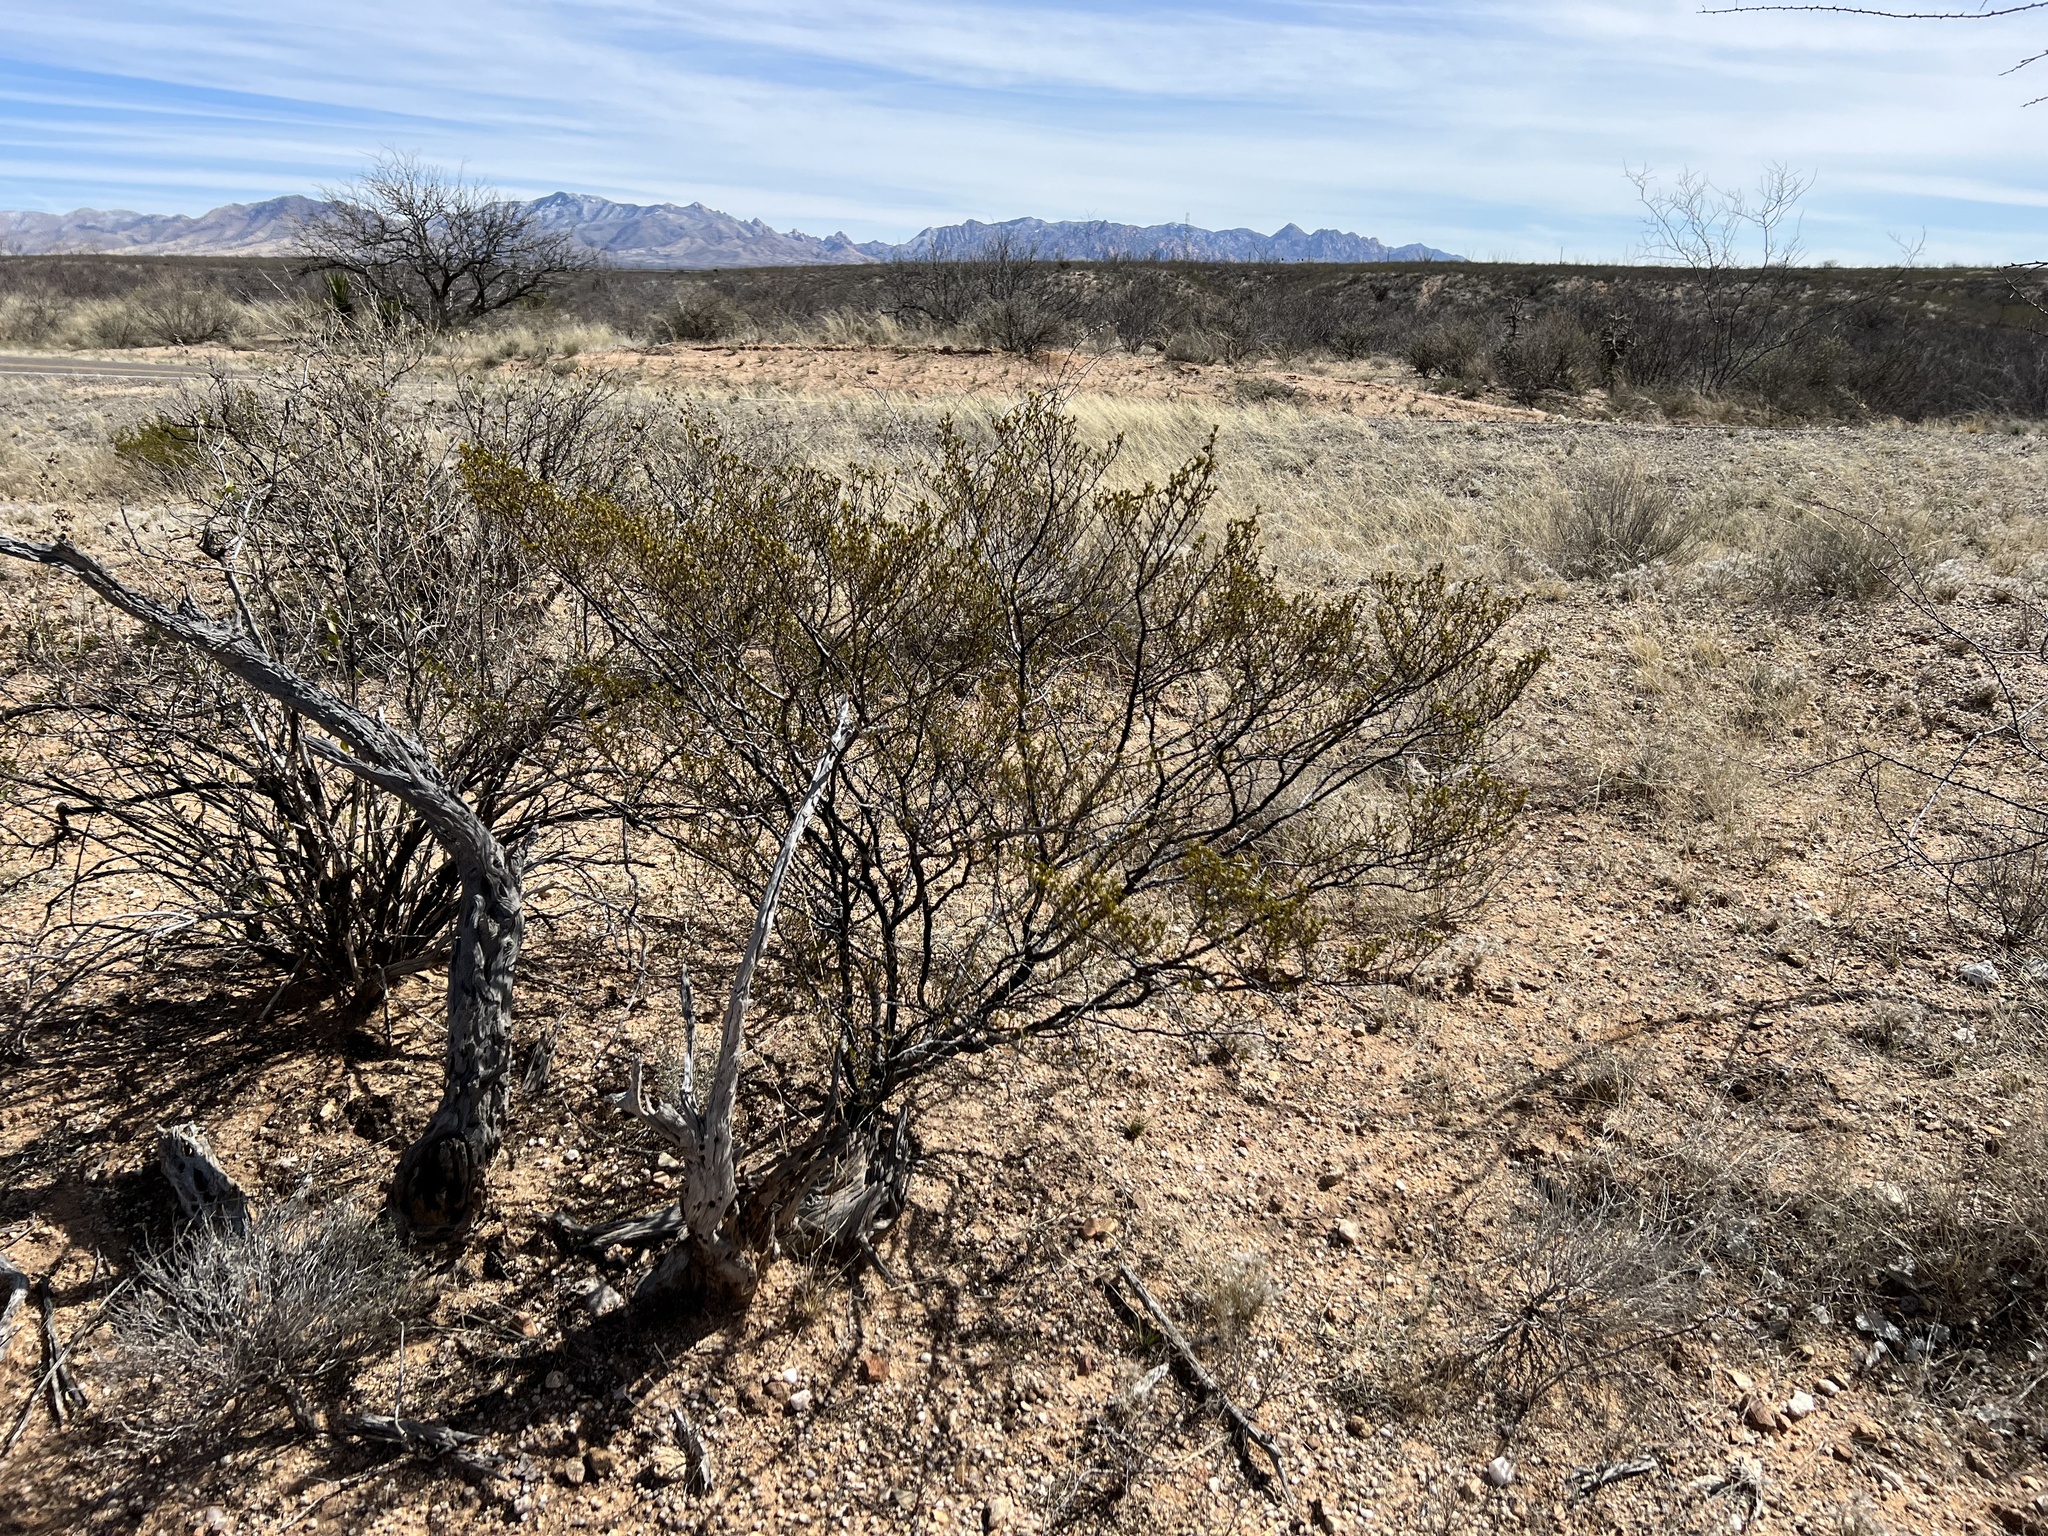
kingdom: Plantae
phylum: Tracheophyta
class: Magnoliopsida
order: Zygophyllales
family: Zygophyllaceae
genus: Larrea
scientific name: Larrea tridentata
